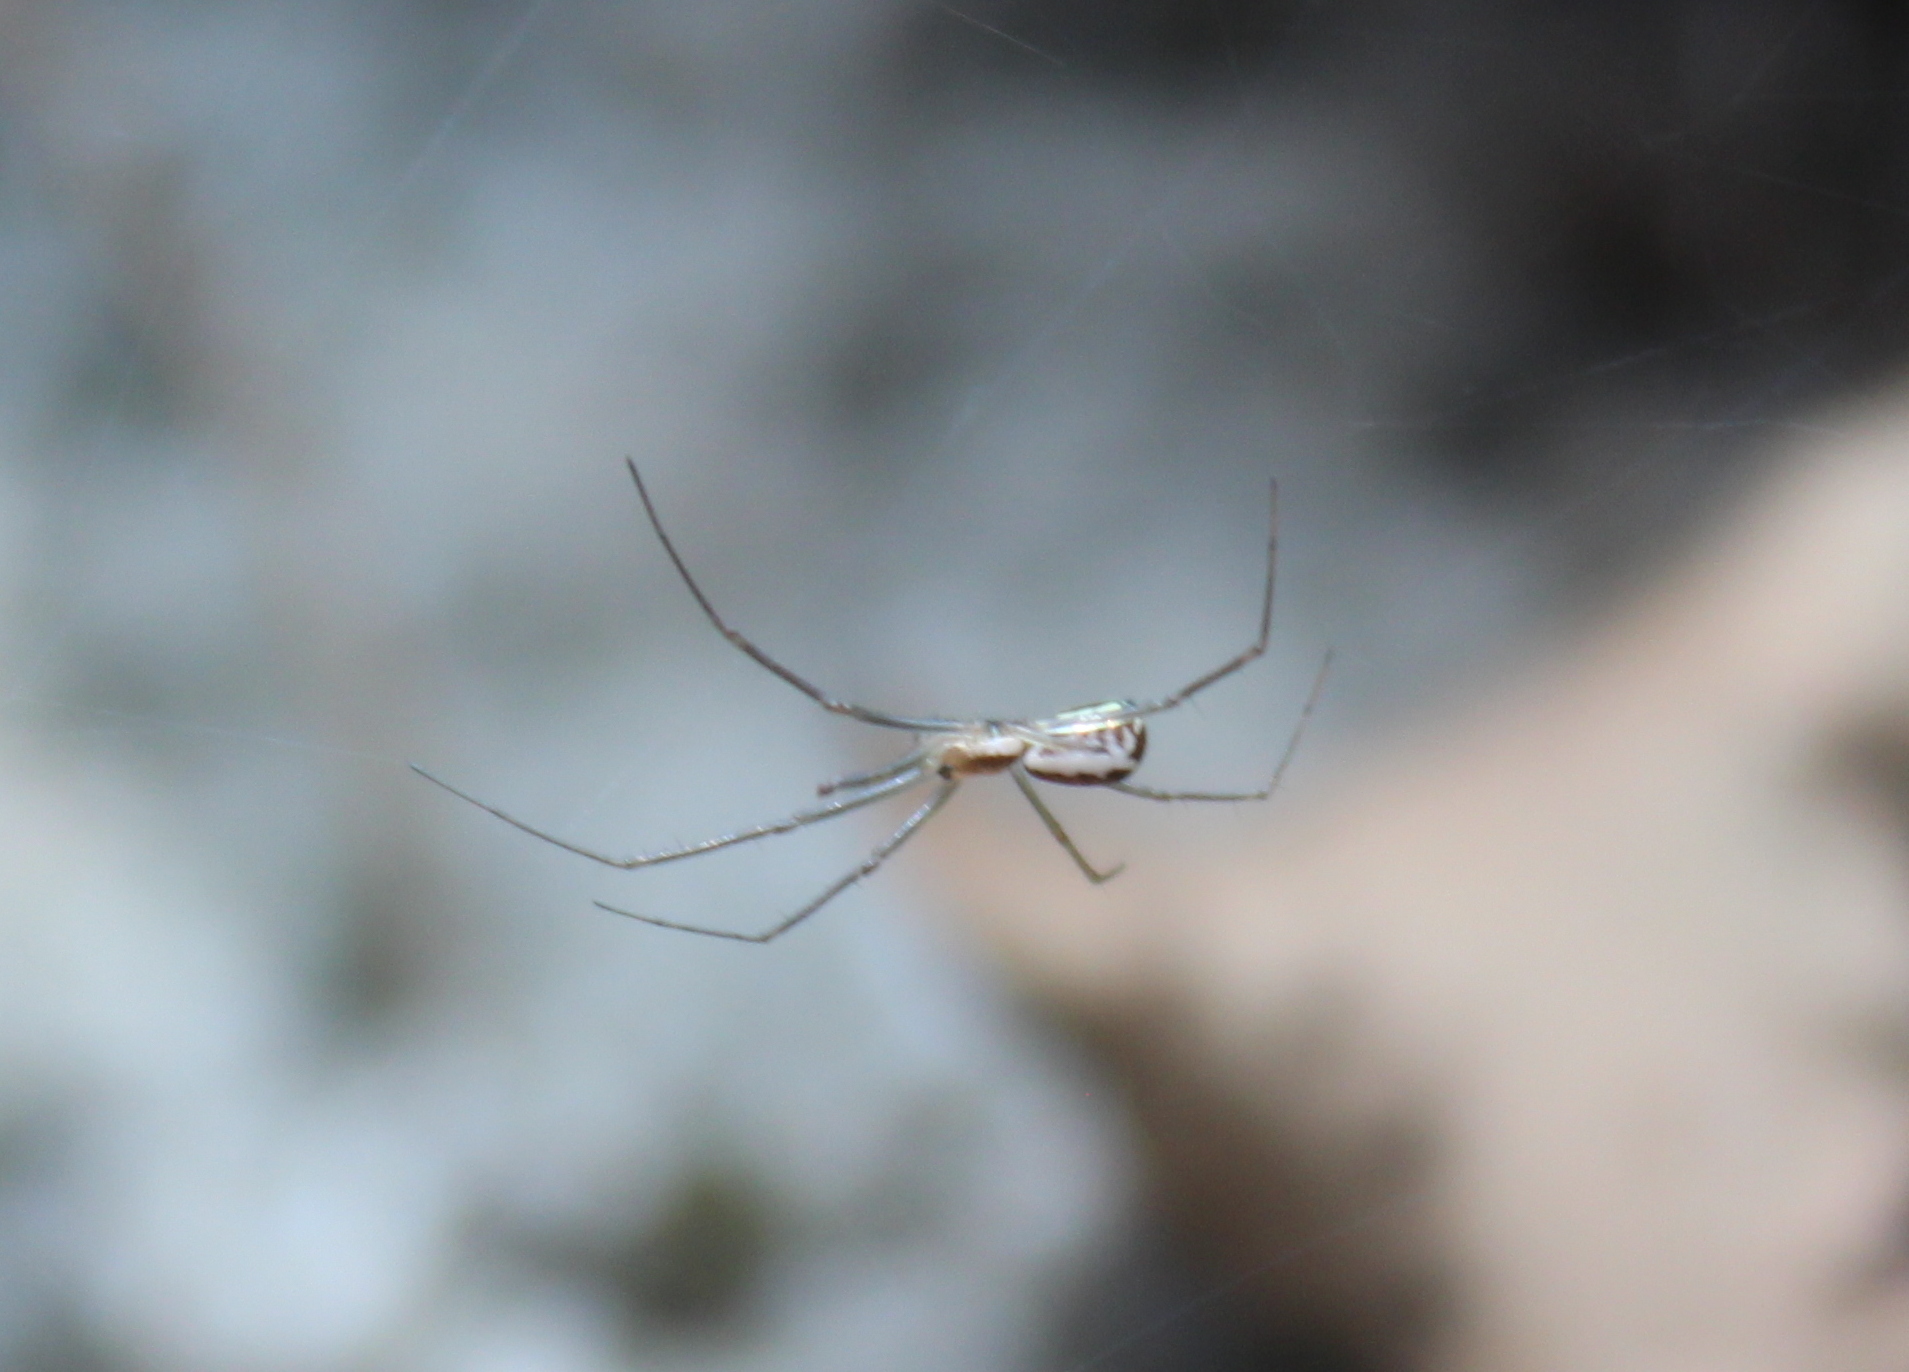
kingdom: Animalia
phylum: Arthropoda
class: Arachnida
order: Araneae
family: Linyphiidae
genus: Neriene
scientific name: Neriene radiata
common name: Filmy dome spider
